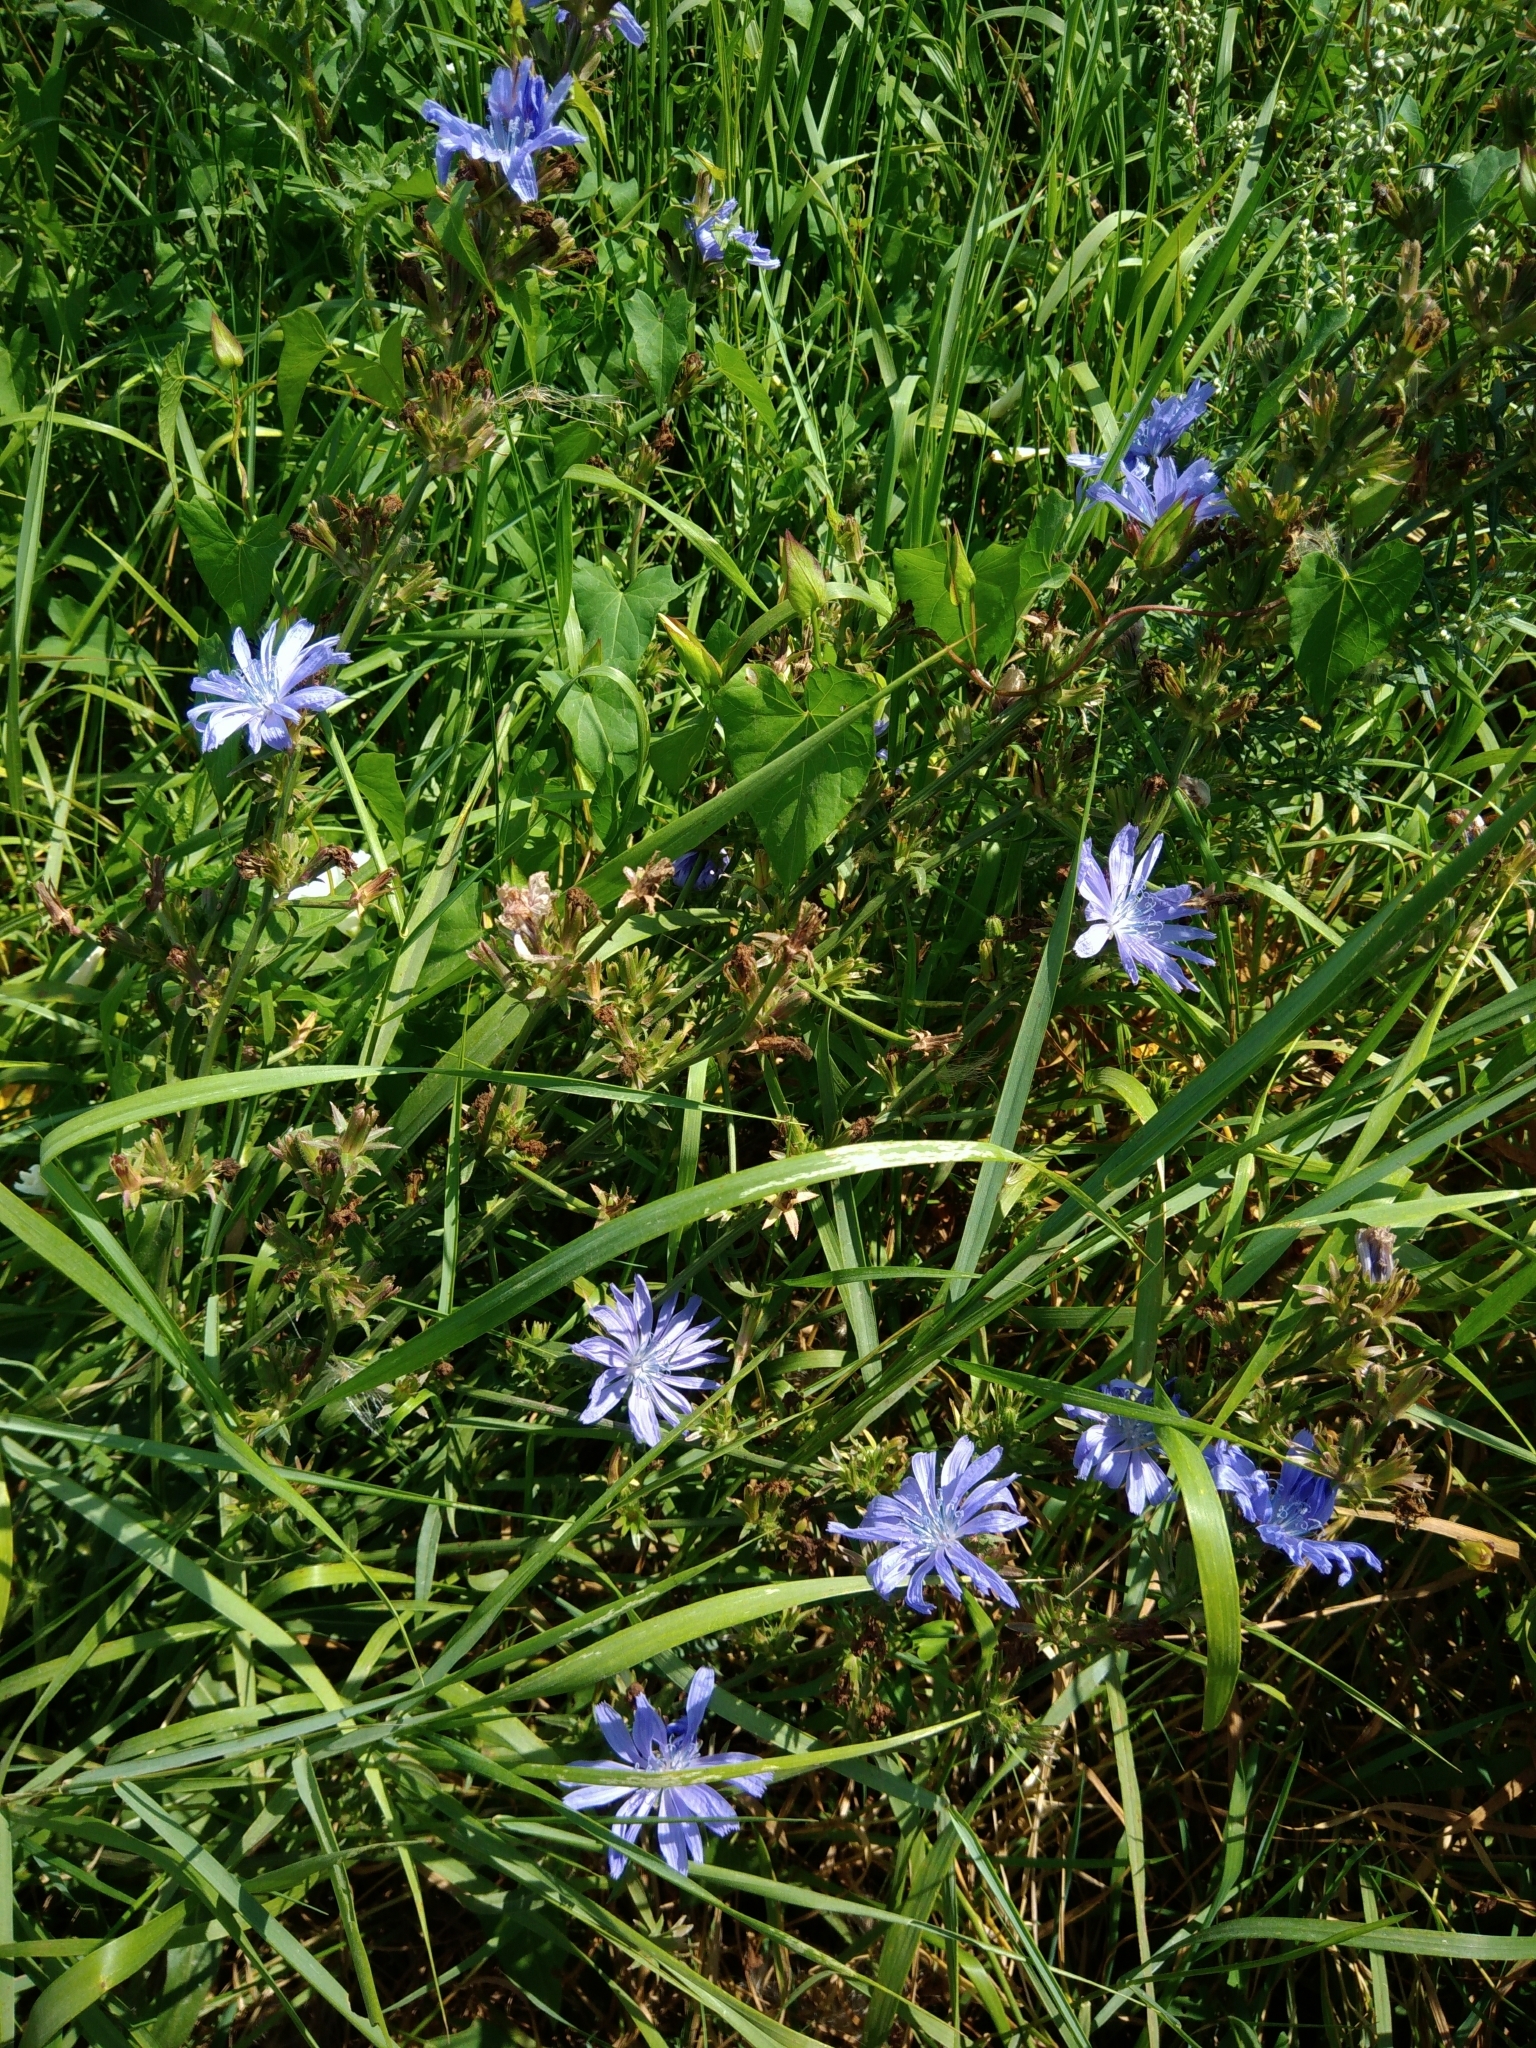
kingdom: Plantae
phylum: Tracheophyta
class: Magnoliopsida
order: Asterales
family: Asteraceae
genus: Cichorium
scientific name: Cichorium intybus
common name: Chicory
